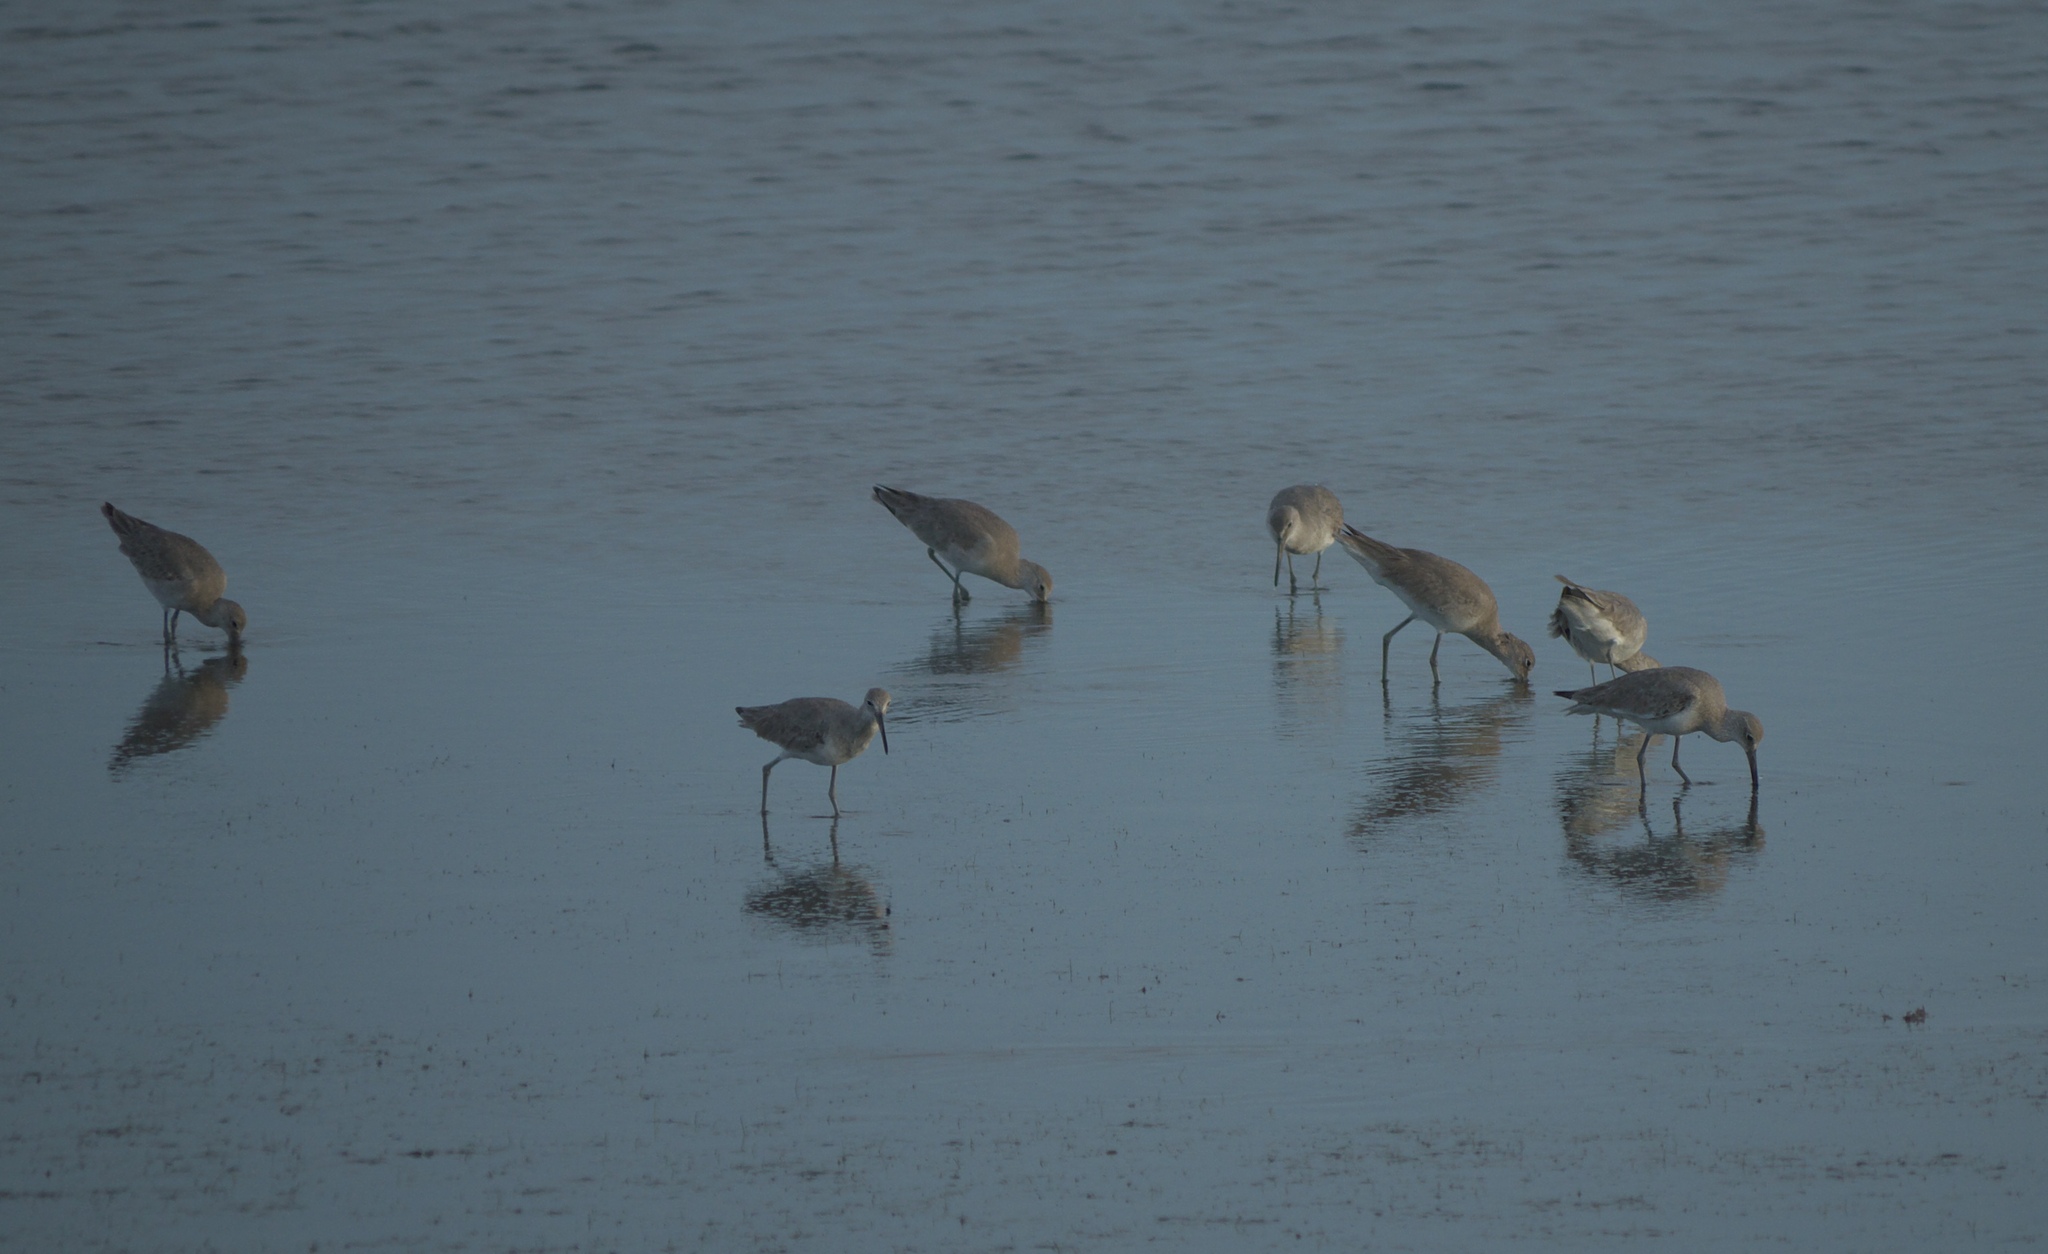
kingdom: Animalia
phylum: Chordata
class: Aves
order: Charadriiformes
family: Scolopacidae
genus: Tringa
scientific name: Tringa semipalmata
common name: Willet
